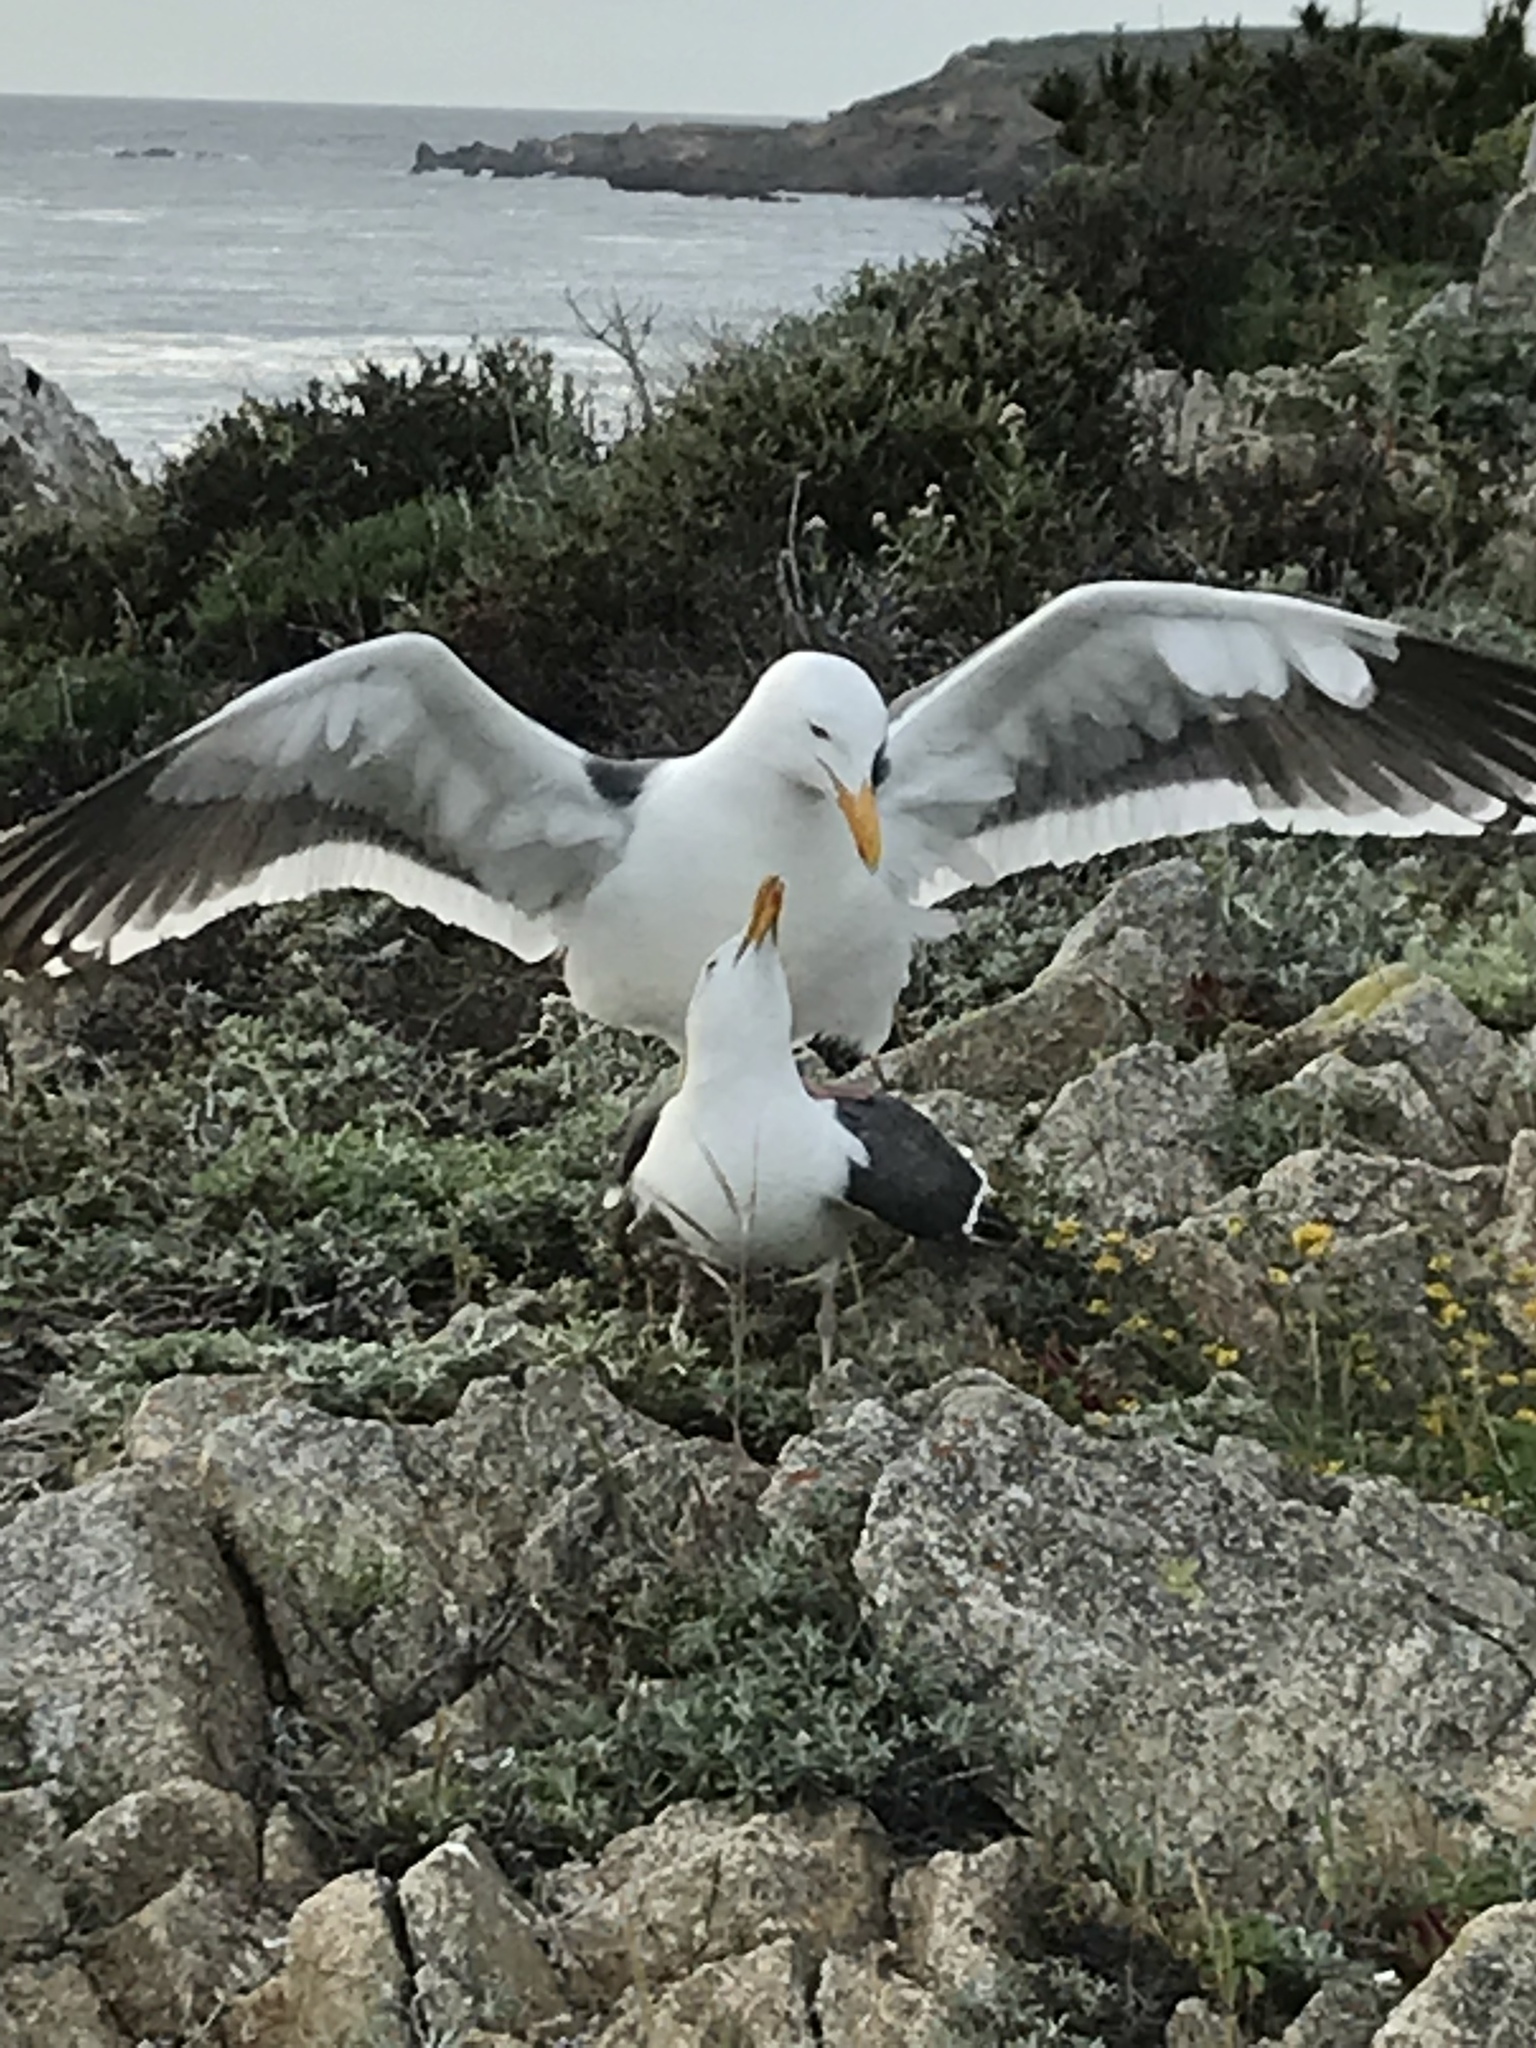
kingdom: Animalia
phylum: Chordata
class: Aves
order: Charadriiformes
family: Laridae
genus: Larus
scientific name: Larus occidentalis
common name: Western gull
